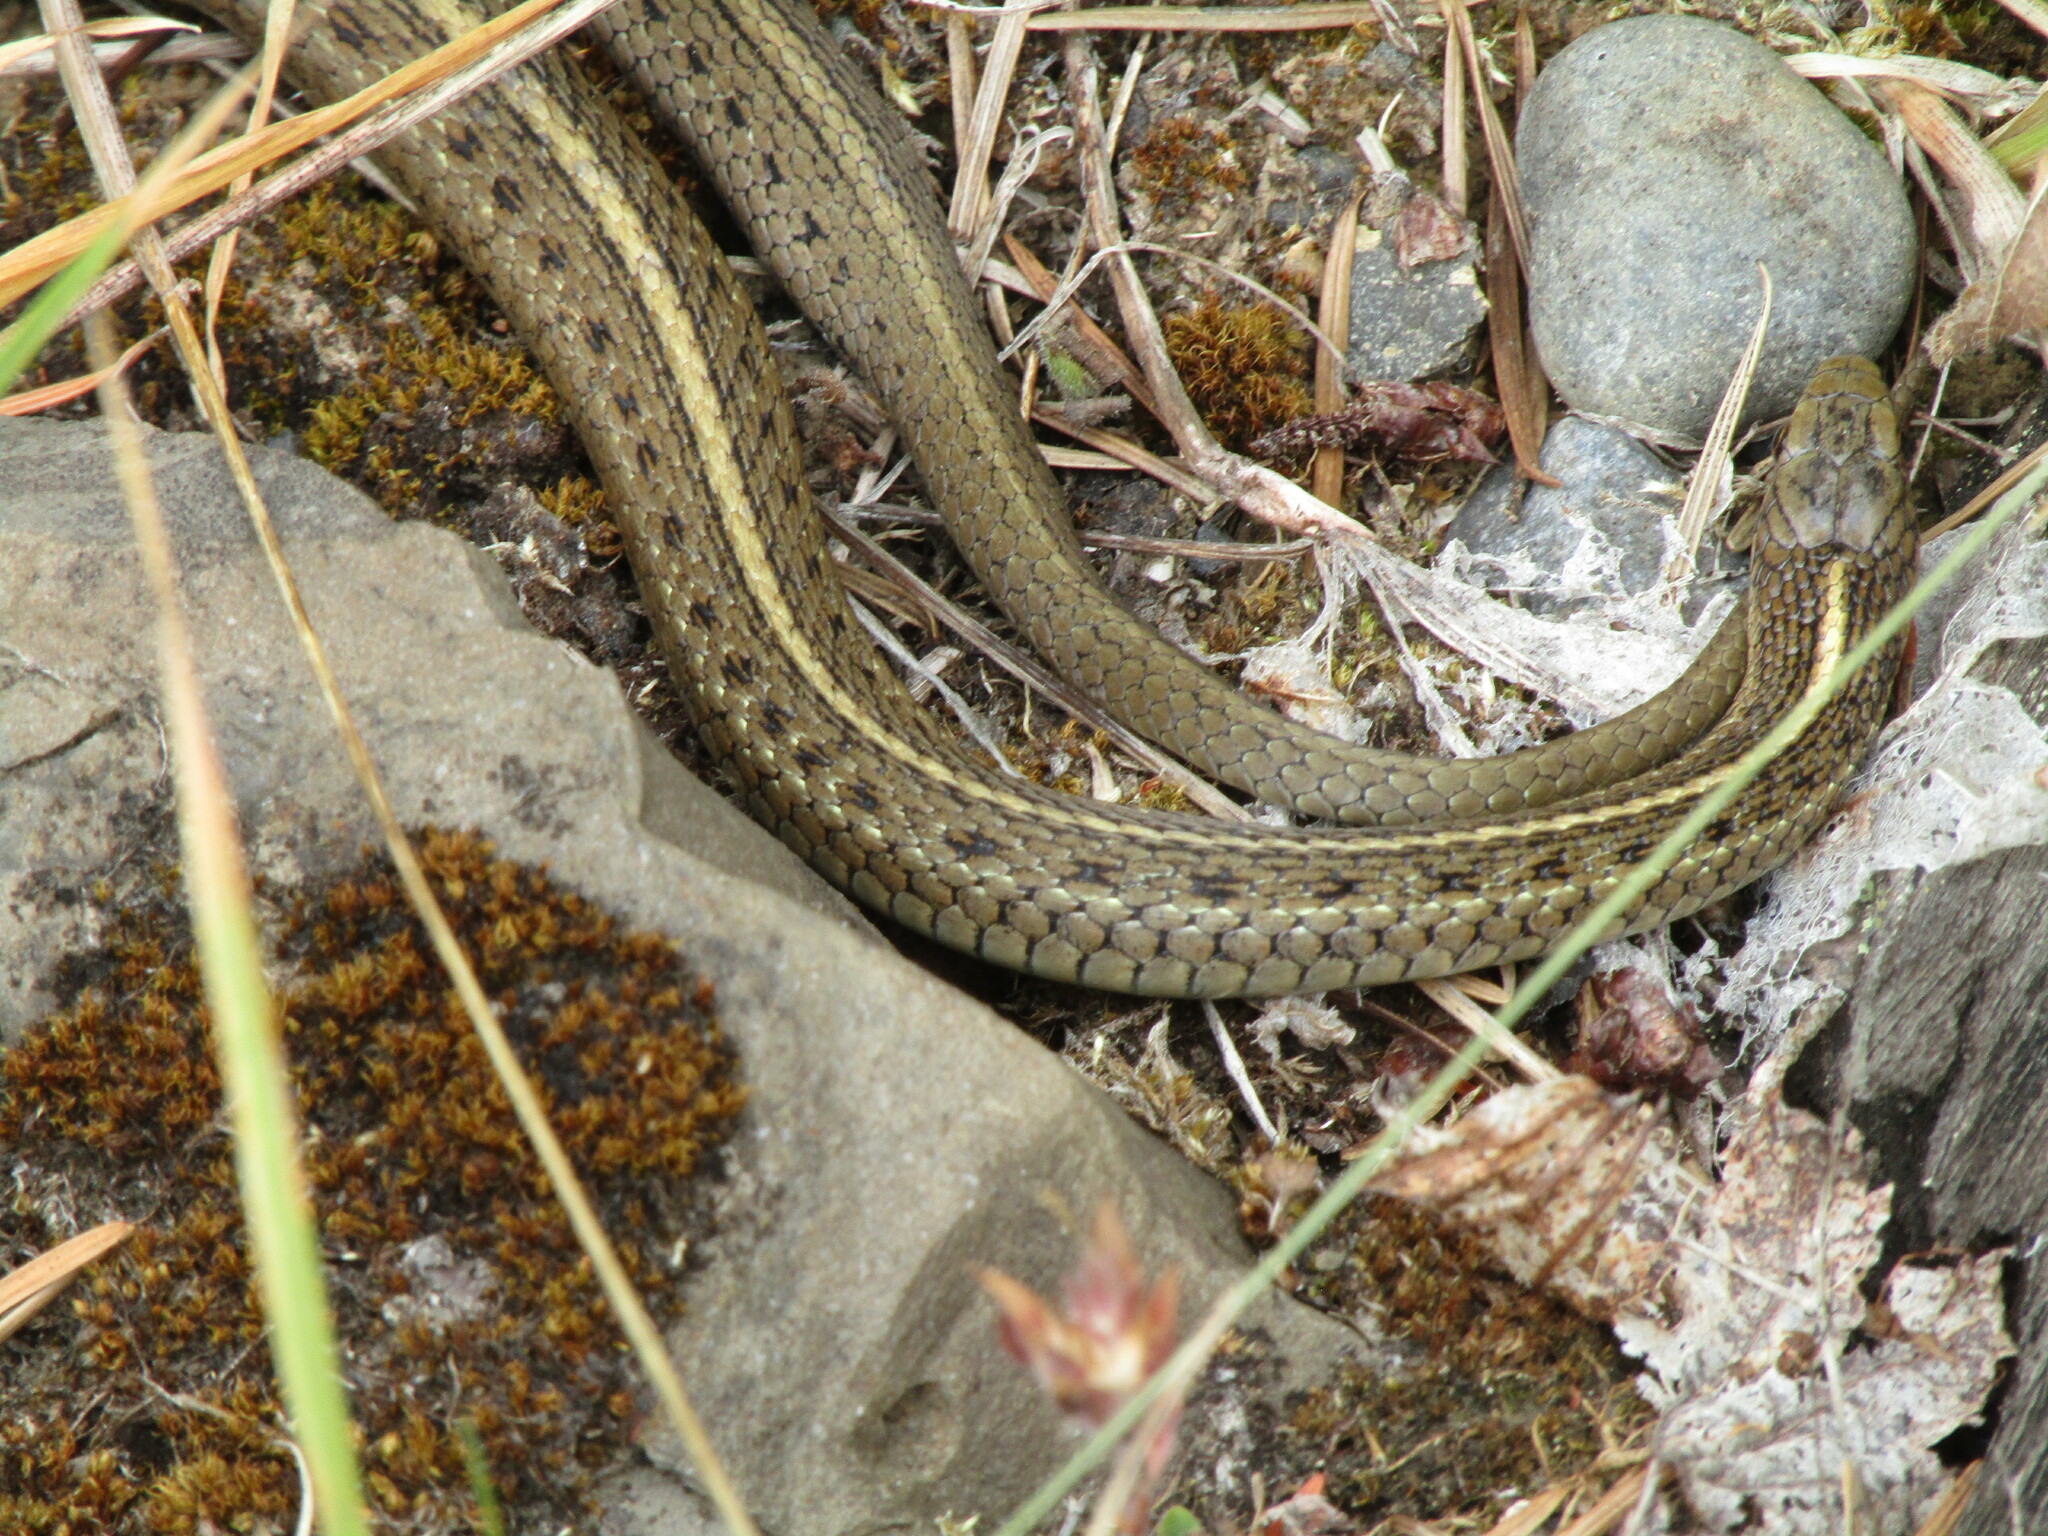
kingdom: Animalia
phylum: Chordata
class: Squamata
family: Colubridae
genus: Thamnophis
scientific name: Thamnophis ordinoides
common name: Northwestern garter snake
